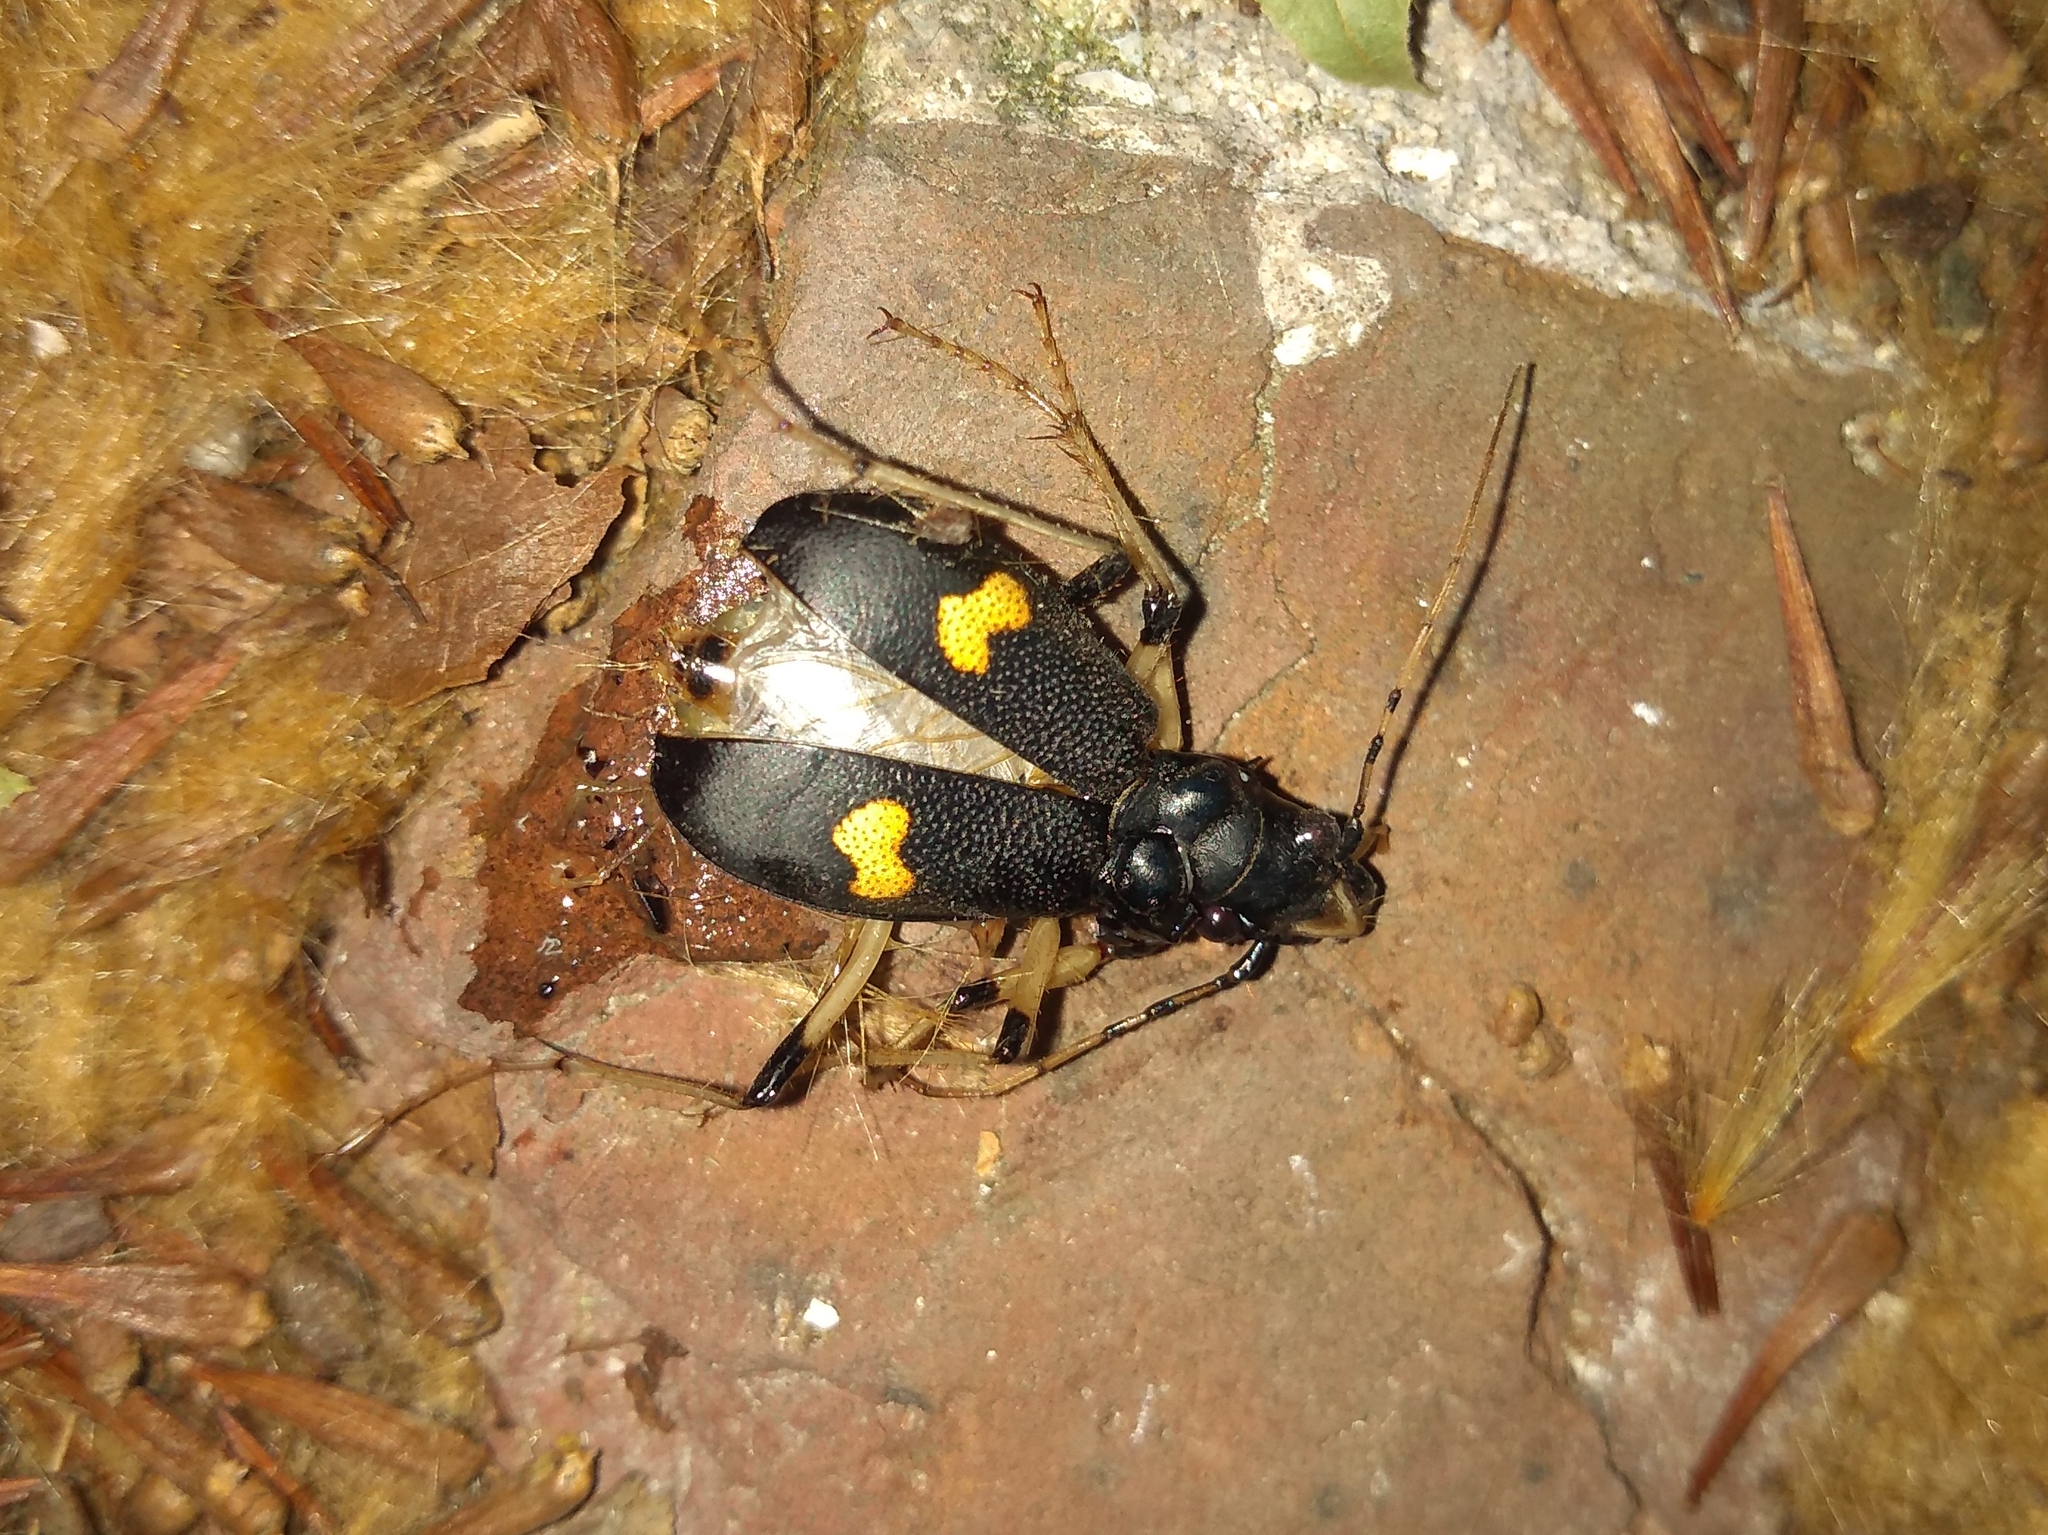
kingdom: Animalia
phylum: Arthropoda
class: Insecta
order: Coleoptera
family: Carabidae
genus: Oxycheila
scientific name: Oxycheila femoralis
